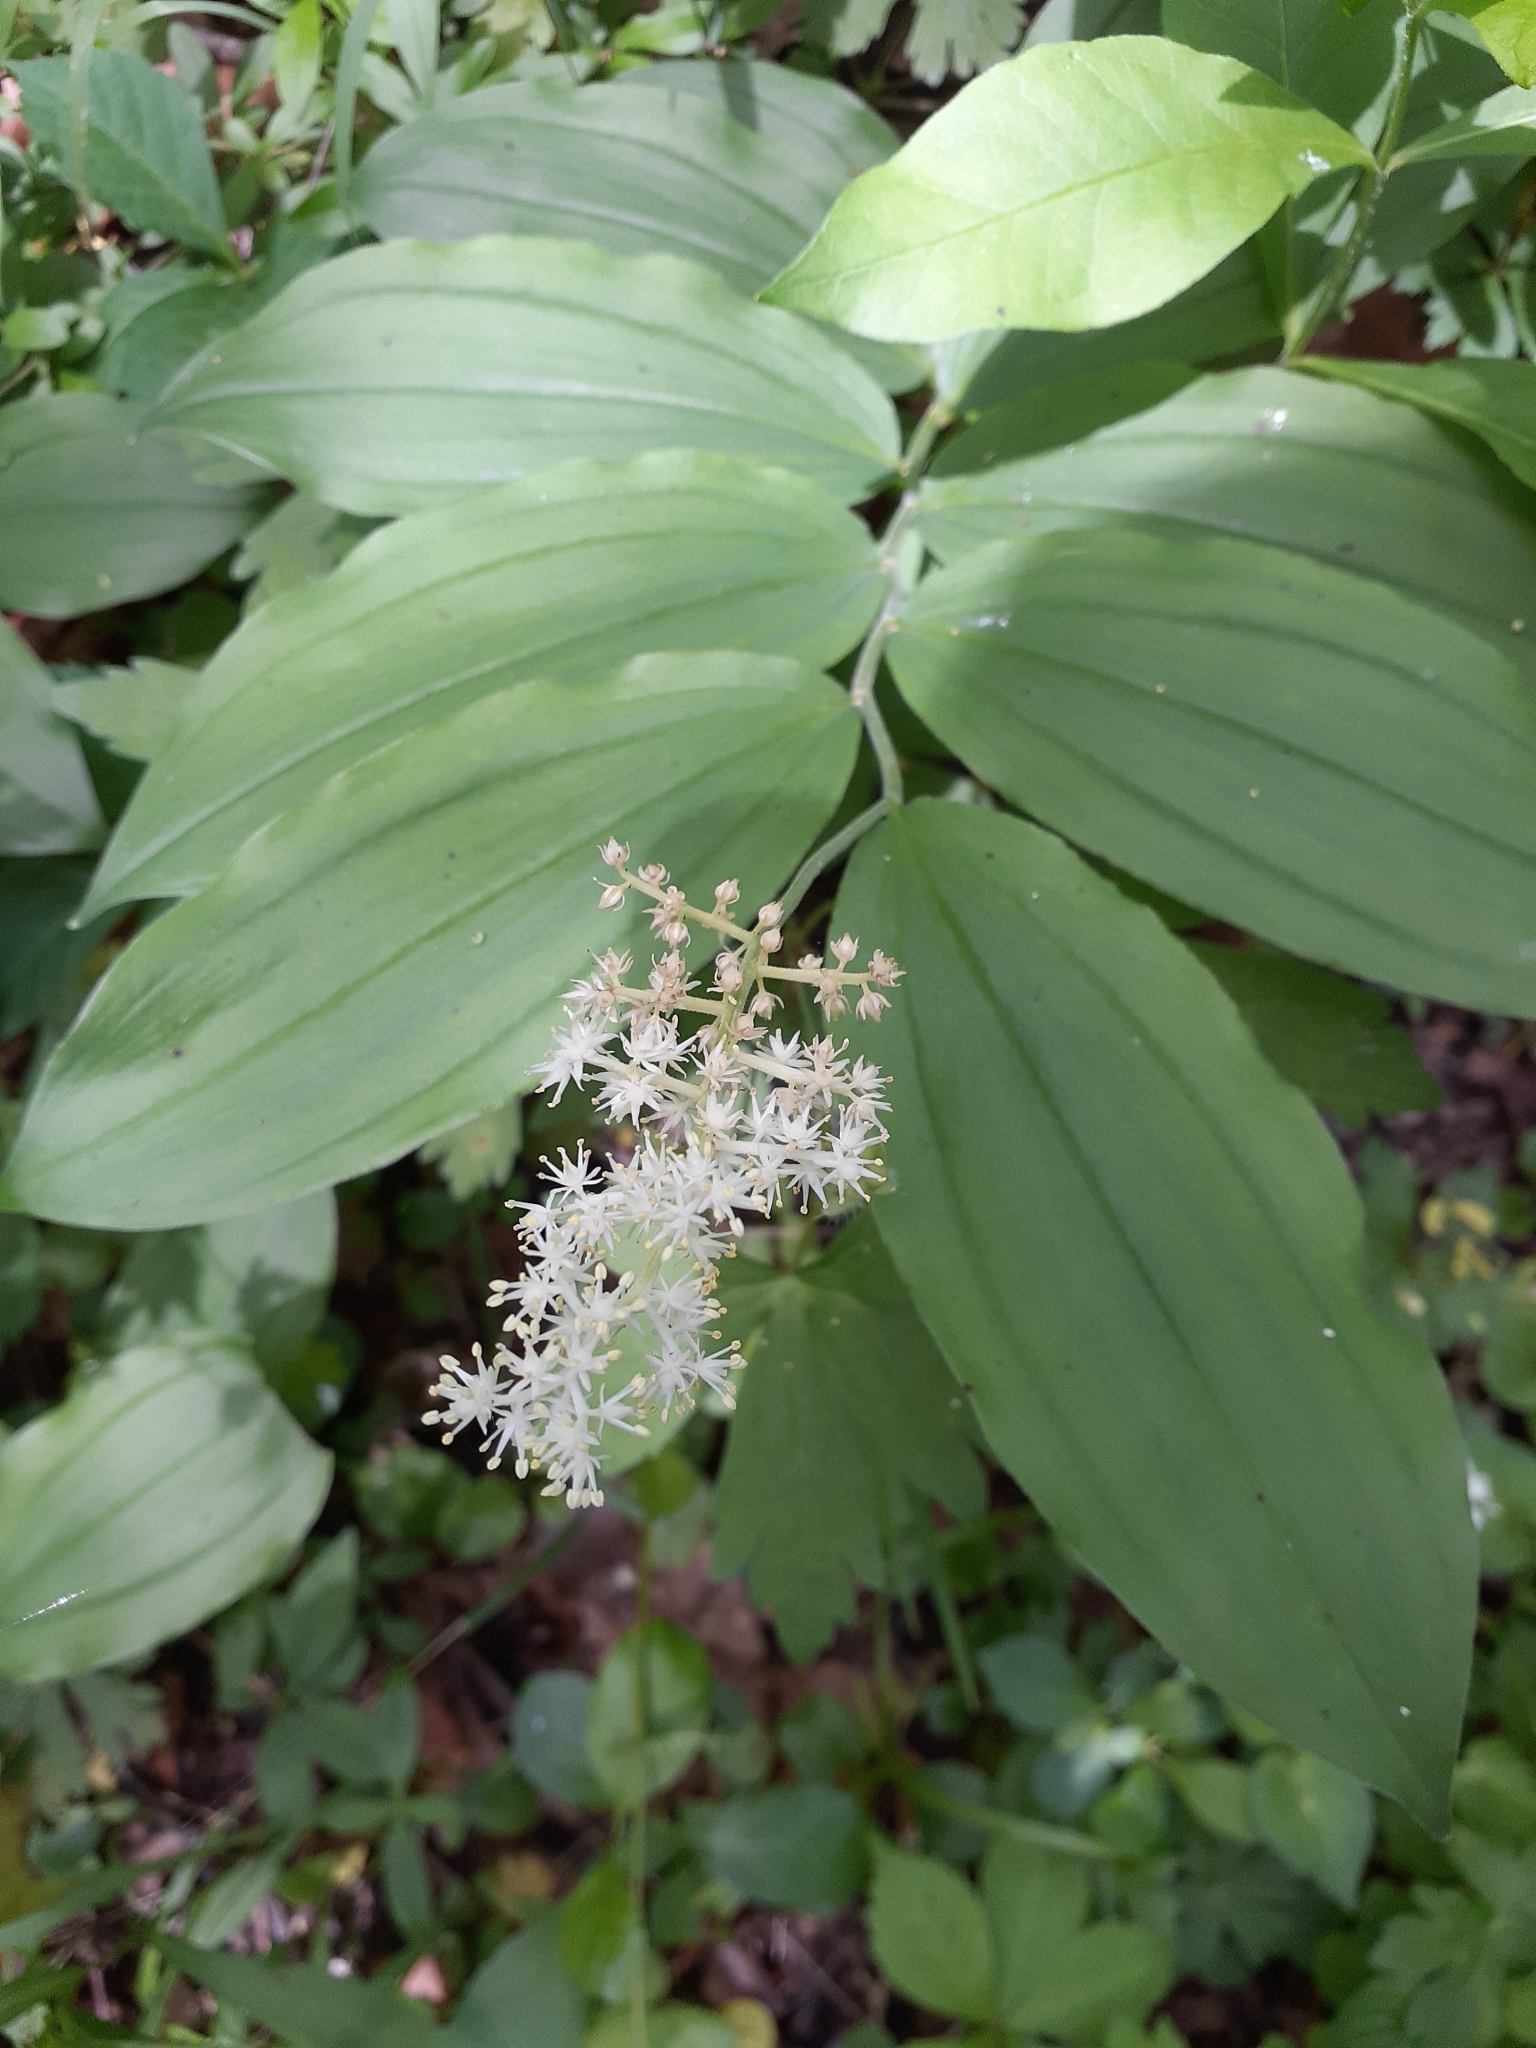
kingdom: Plantae
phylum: Tracheophyta
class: Liliopsida
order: Asparagales
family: Asparagaceae
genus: Maianthemum
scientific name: Maianthemum racemosum
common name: False spikenard
